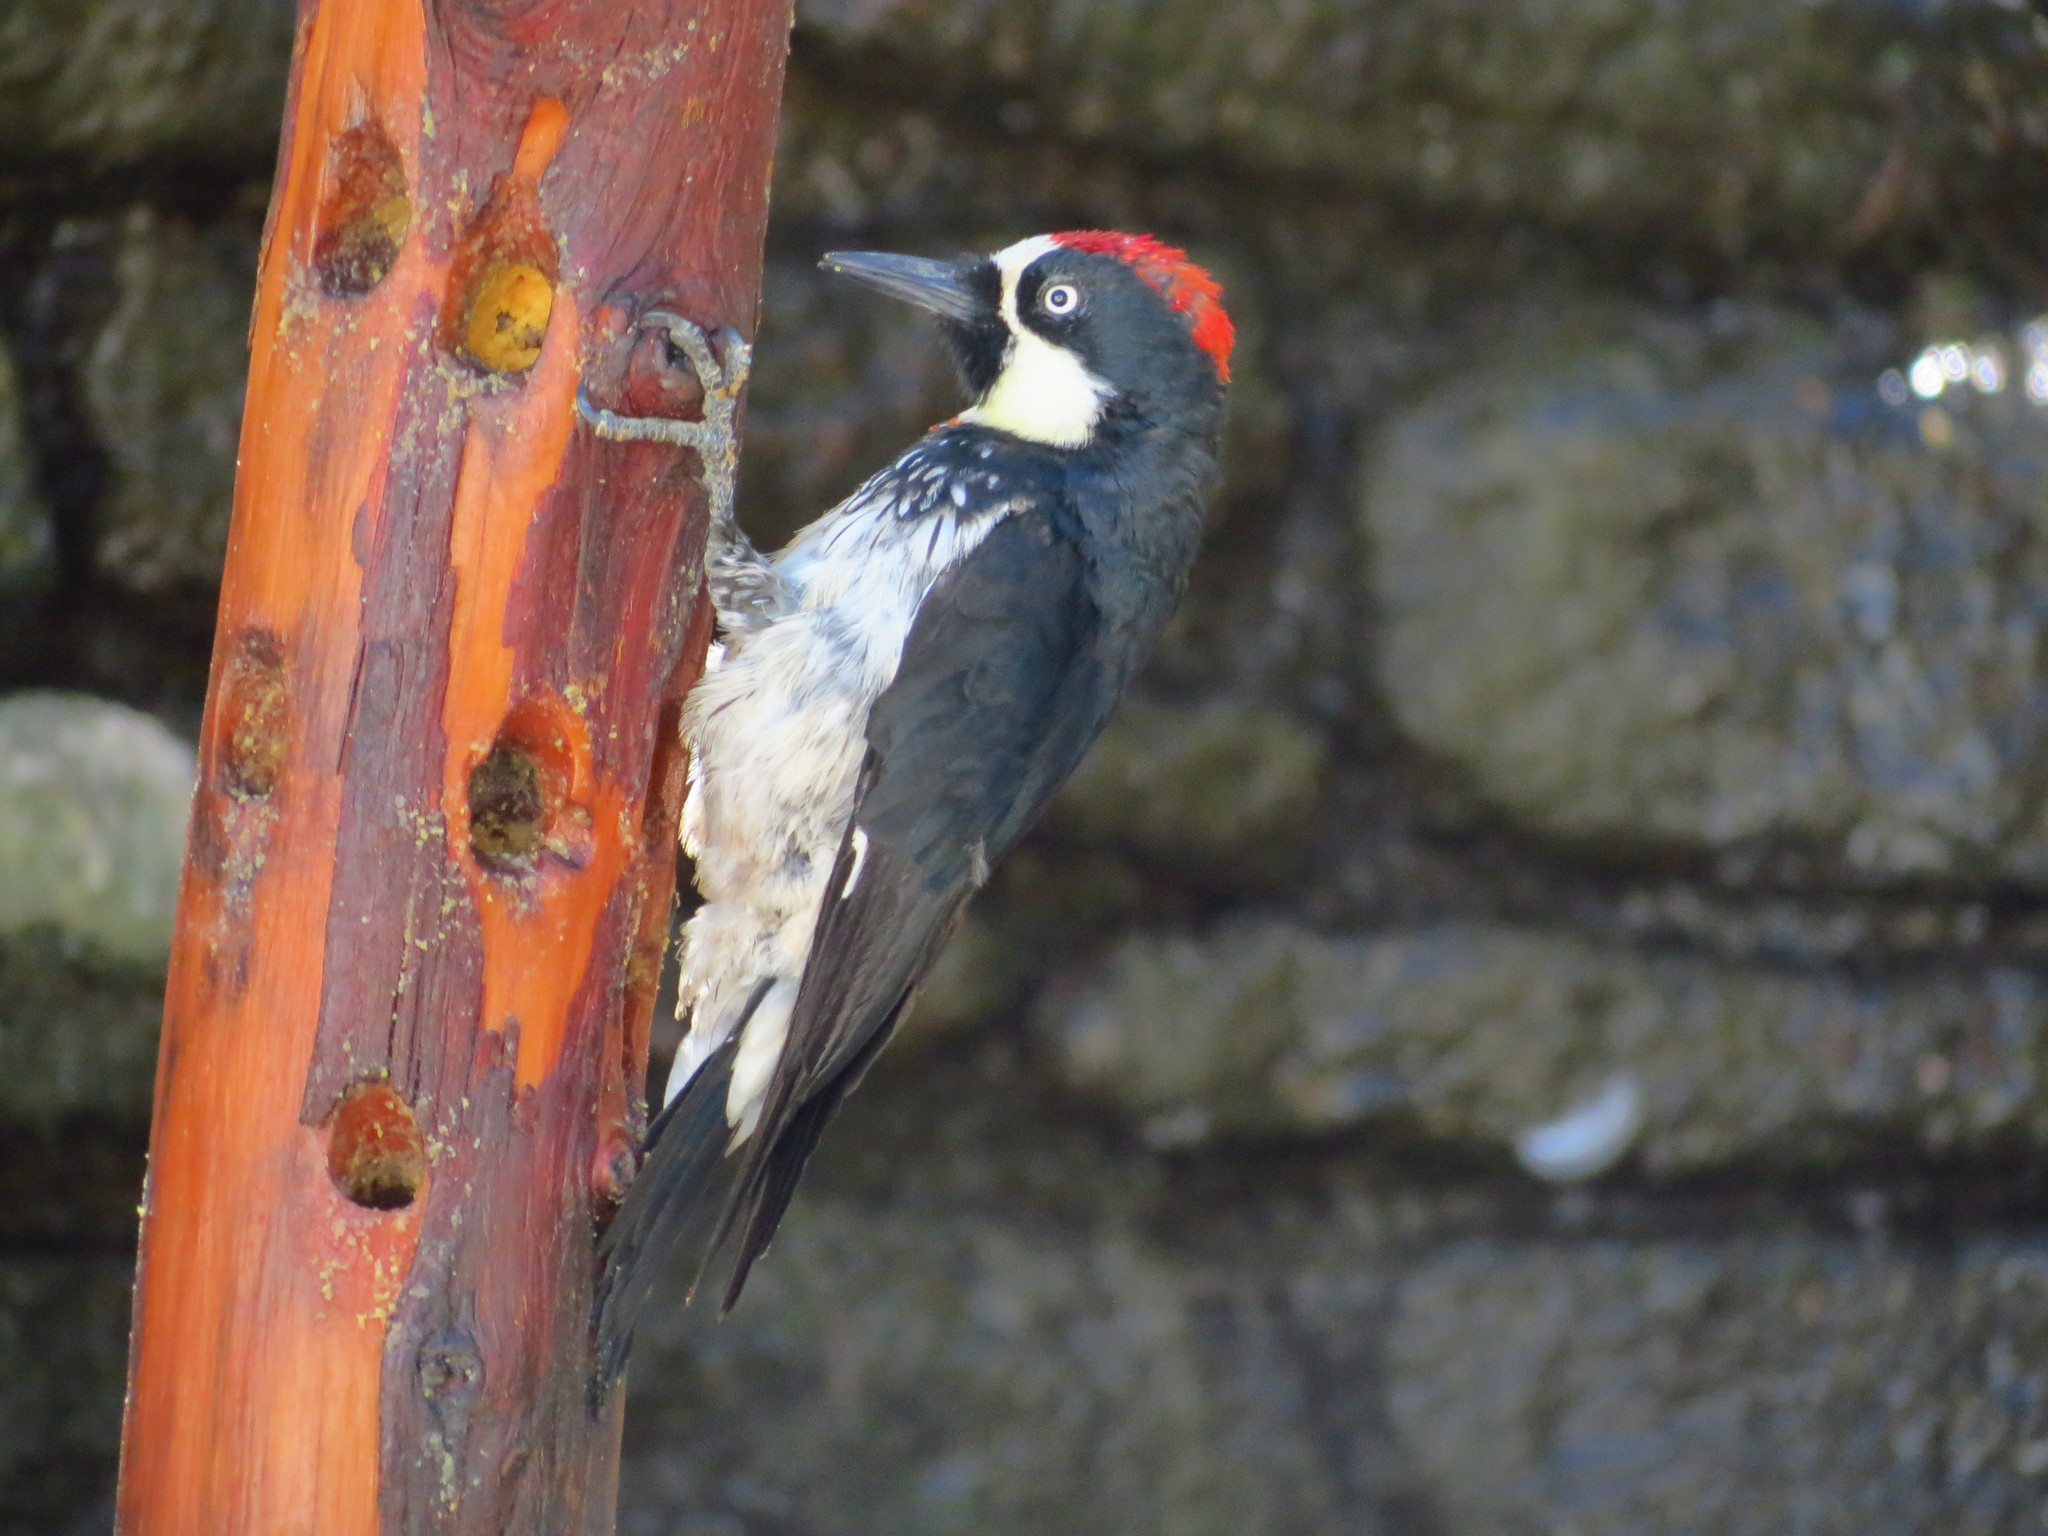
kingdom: Animalia
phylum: Chordata
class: Aves
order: Piciformes
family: Picidae
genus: Melanerpes
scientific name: Melanerpes formicivorus
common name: Acorn woodpecker
